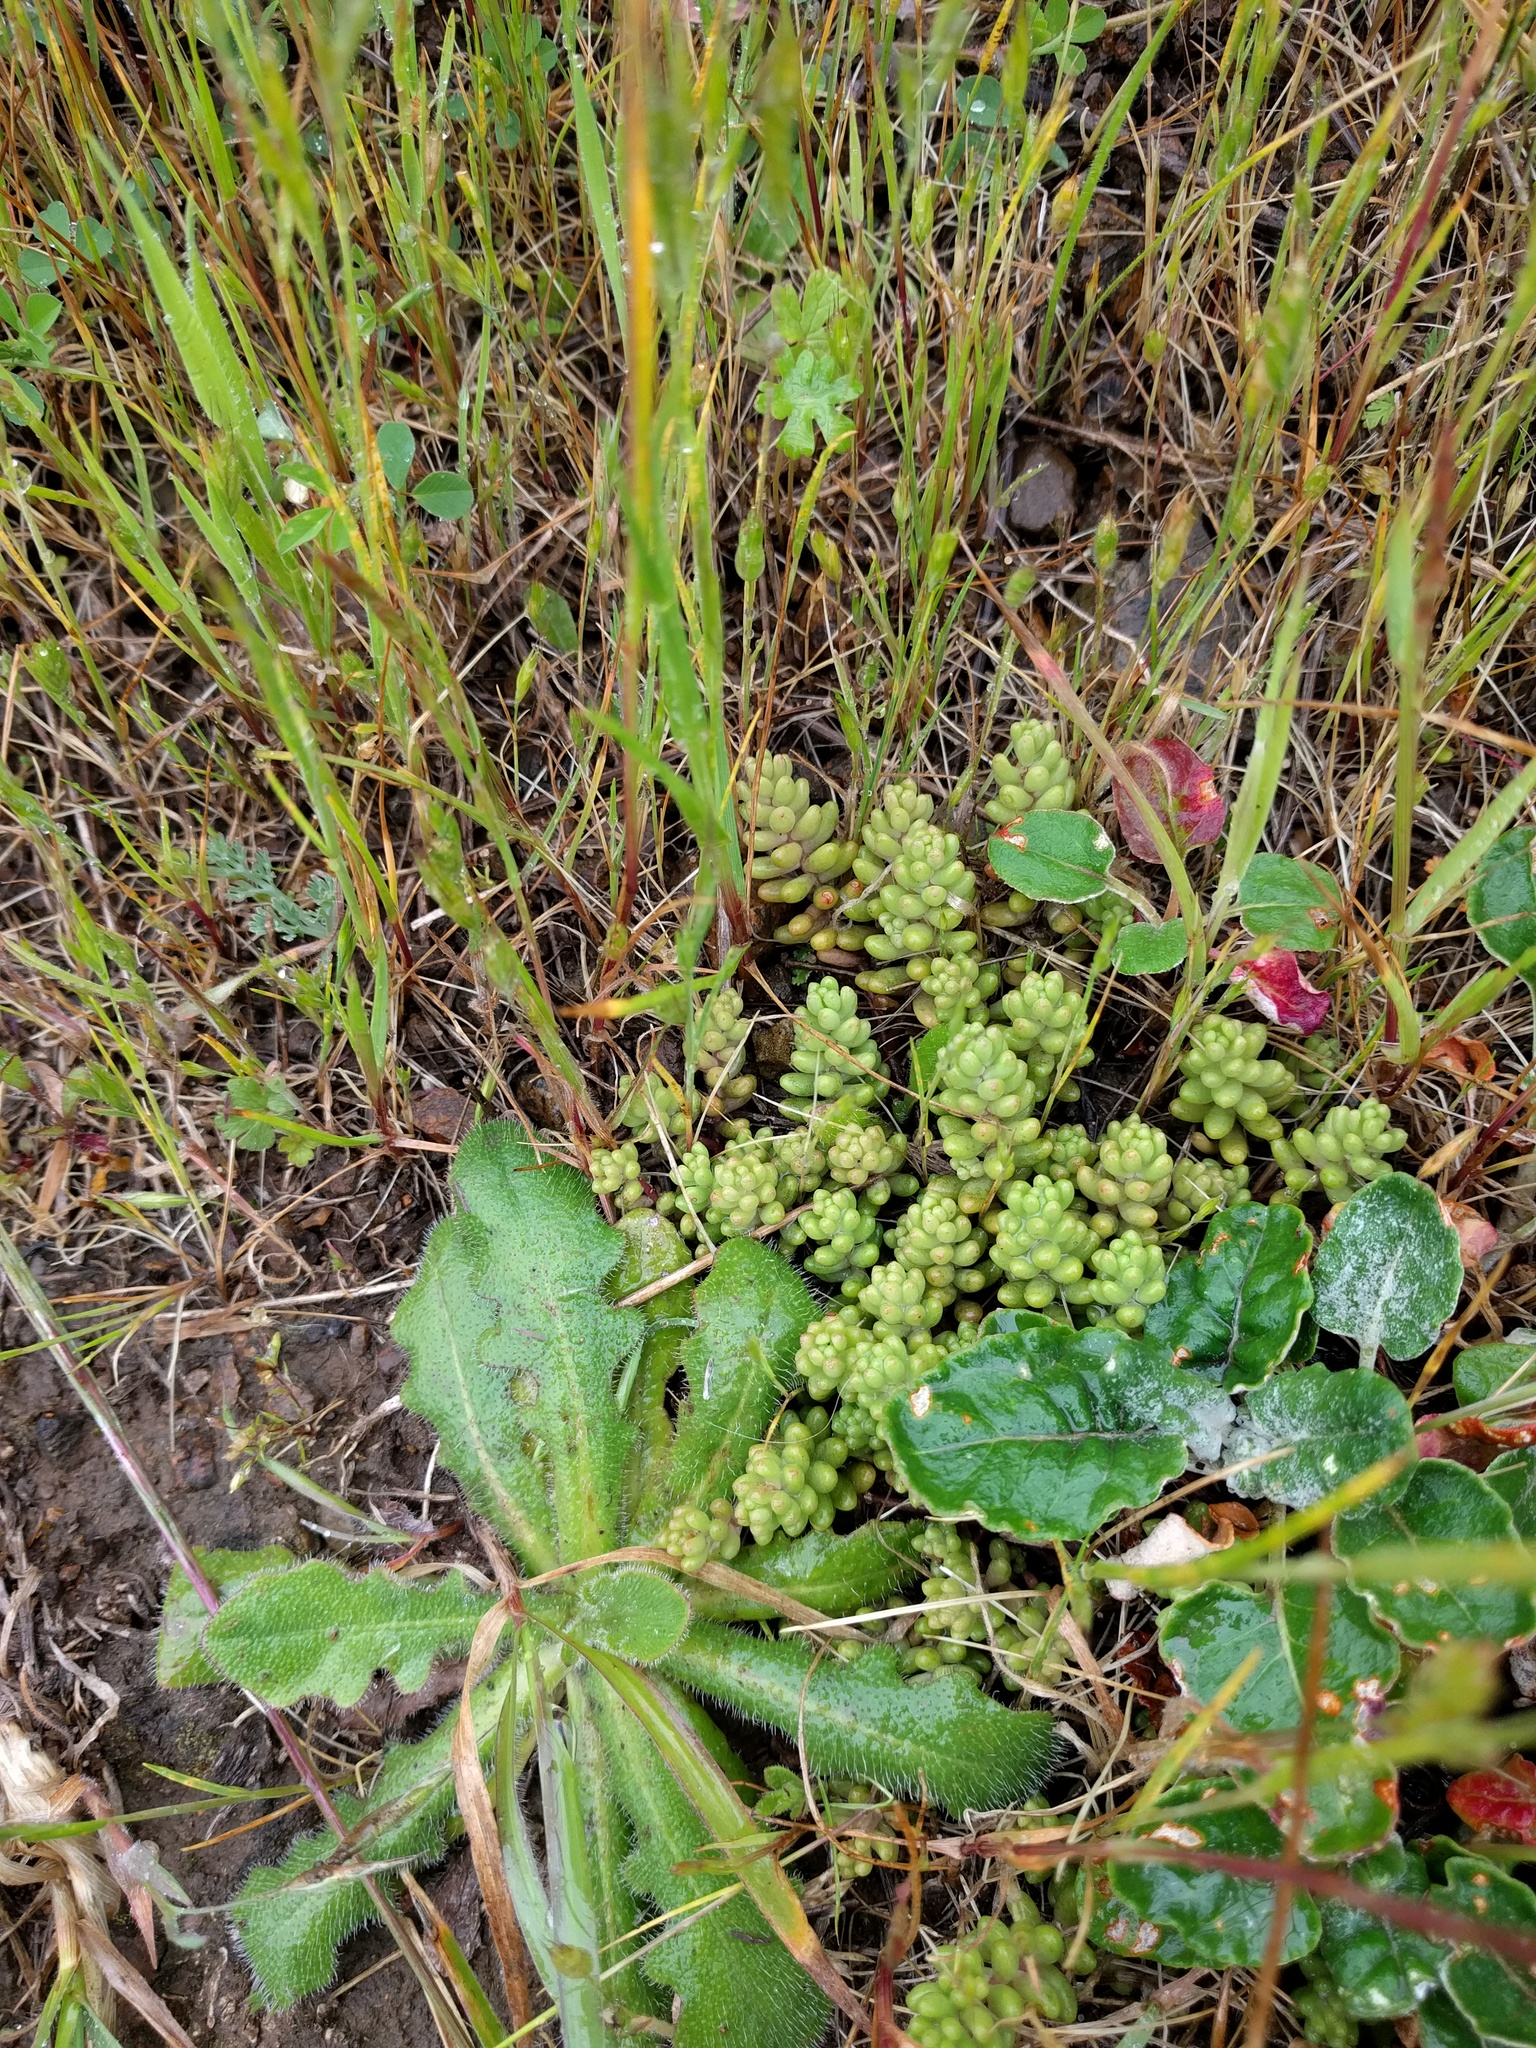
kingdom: Plantae
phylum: Tracheophyta
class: Magnoliopsida
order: Saxifragales
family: Crassulaceae
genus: Sedum
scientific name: Sedum radiatum
